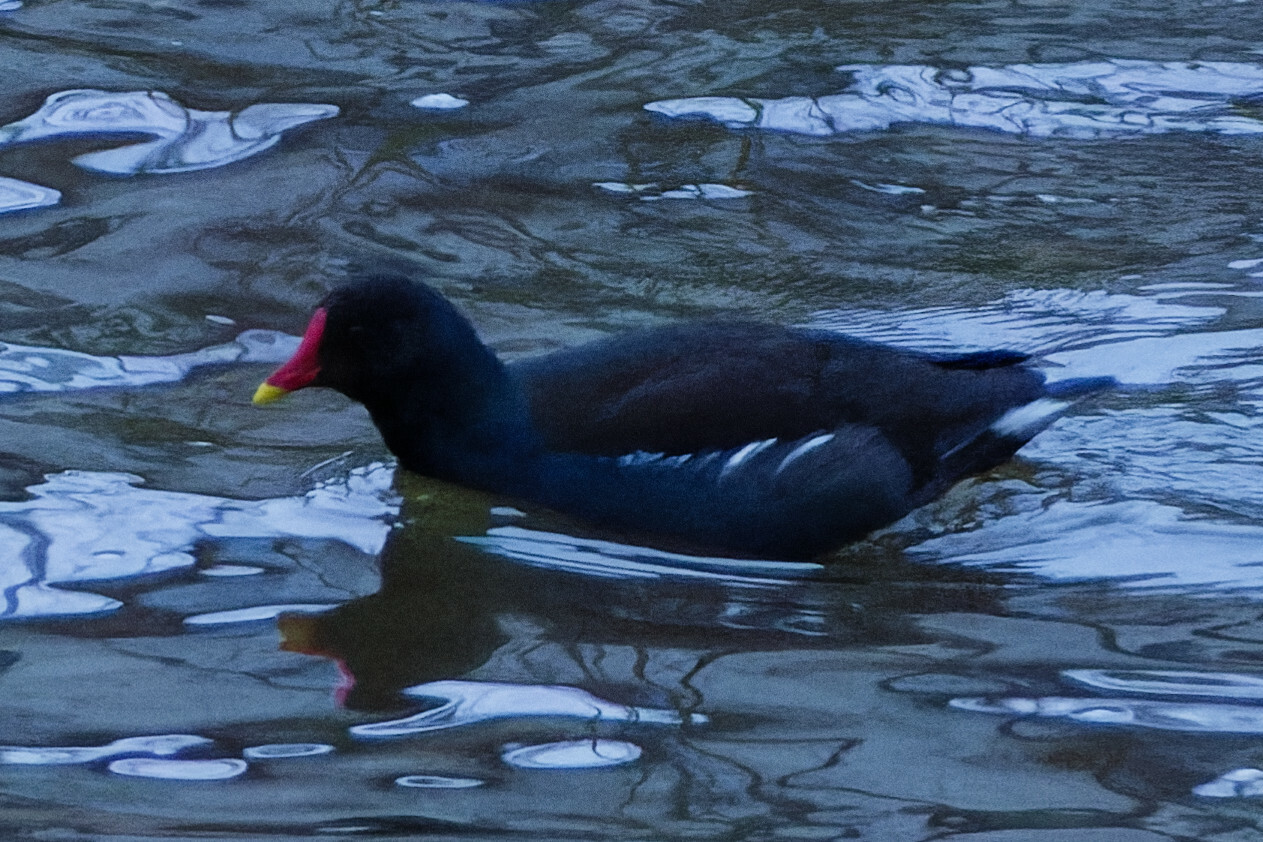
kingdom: Animalia
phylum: Chordata
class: Aves
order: Gruiformes
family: Rallidae
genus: Gallinula
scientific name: Gallinula chloropus
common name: Common moorhen
